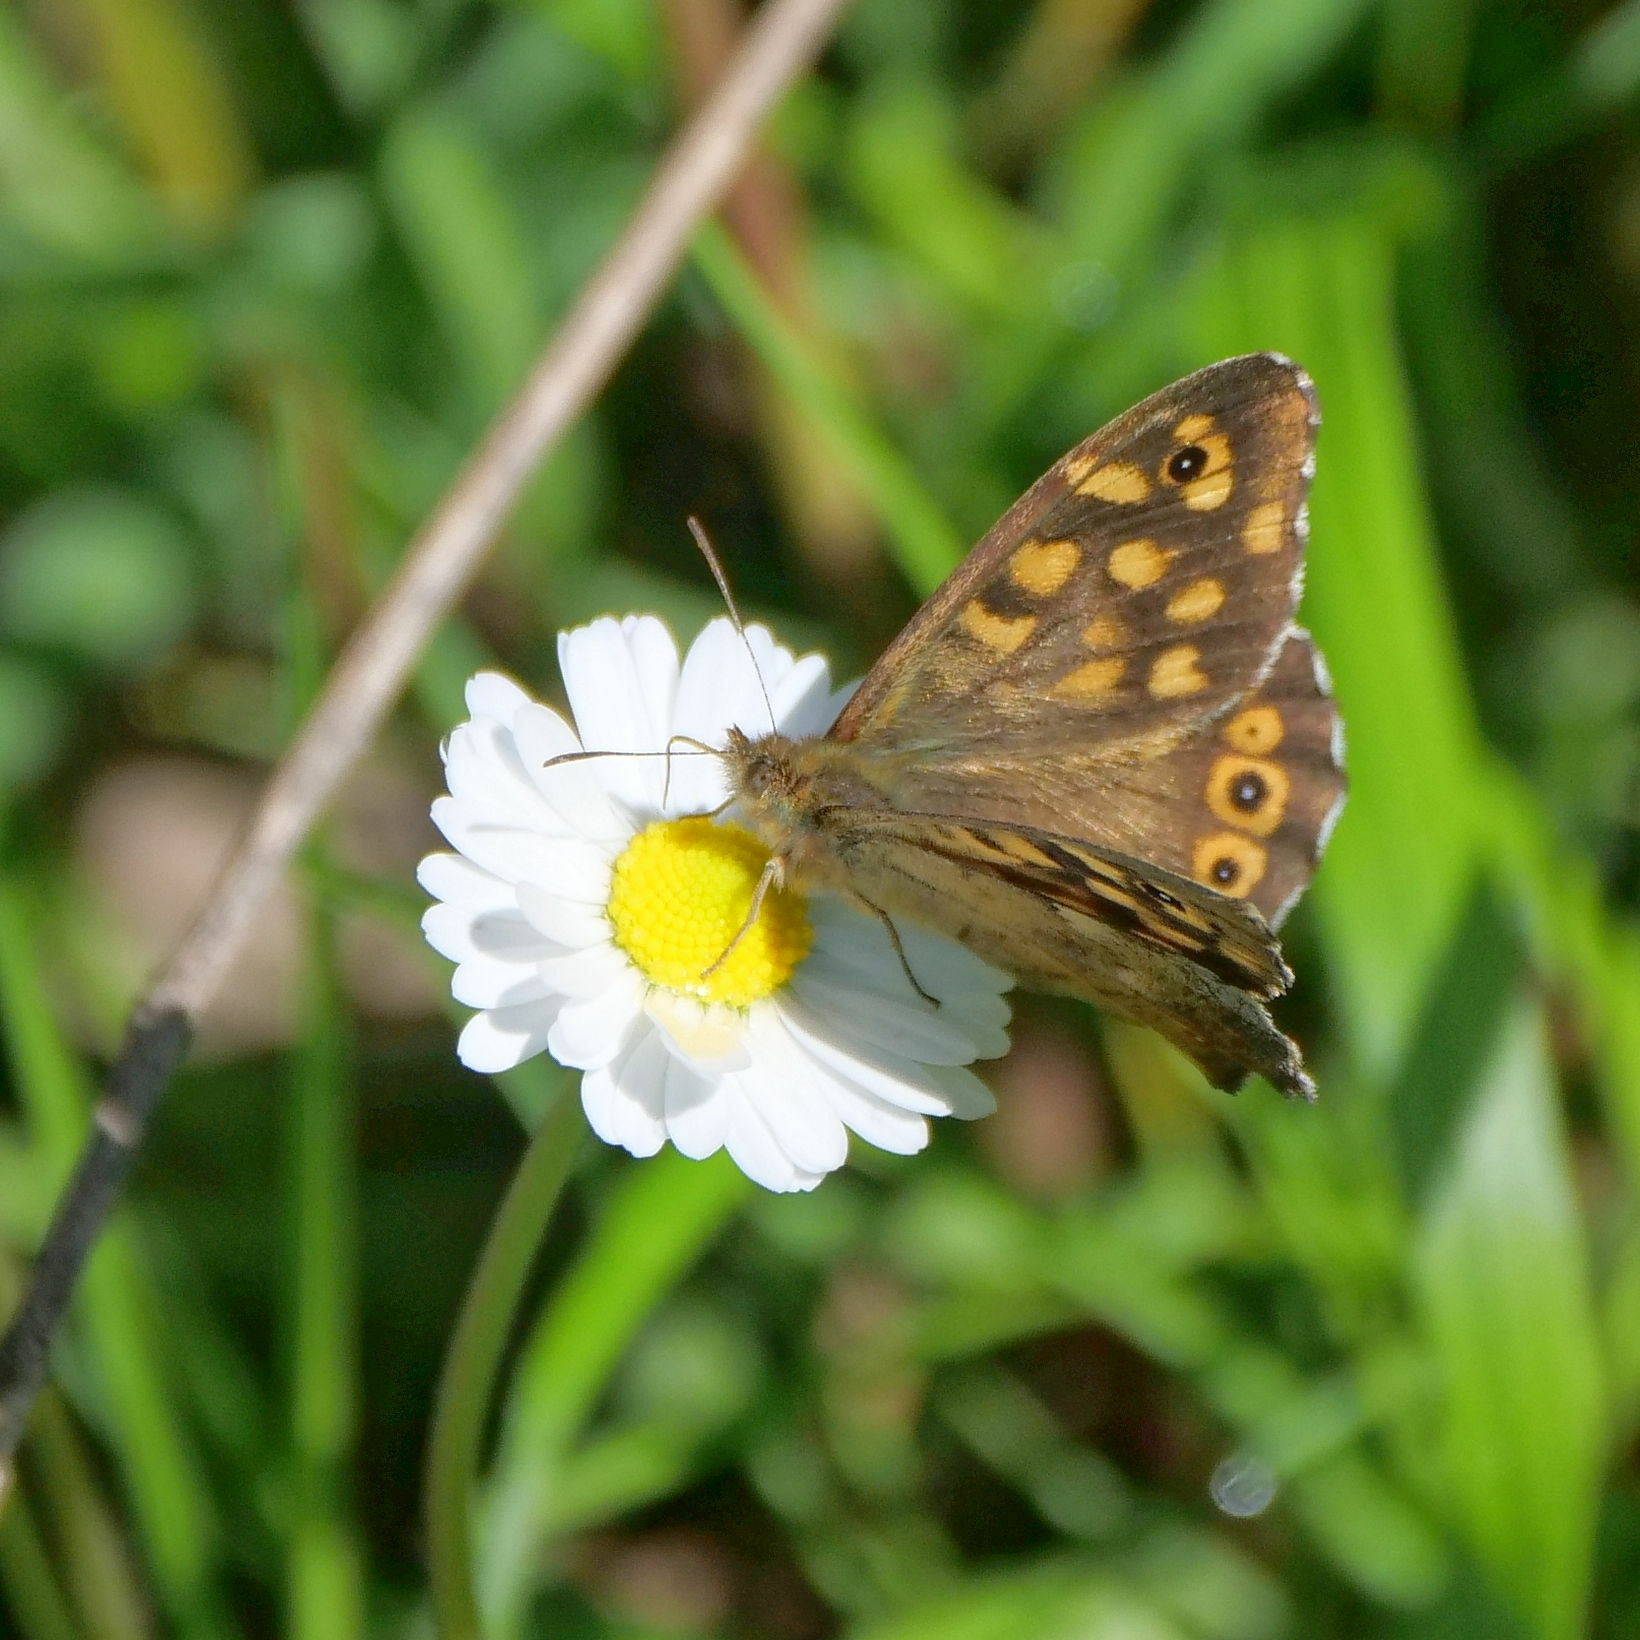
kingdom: Animalia
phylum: Arthropoda
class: Insecta
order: Lepidoptera
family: Nymphalidae
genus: Pararge
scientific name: Pararge aegeria
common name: Speckled wood
